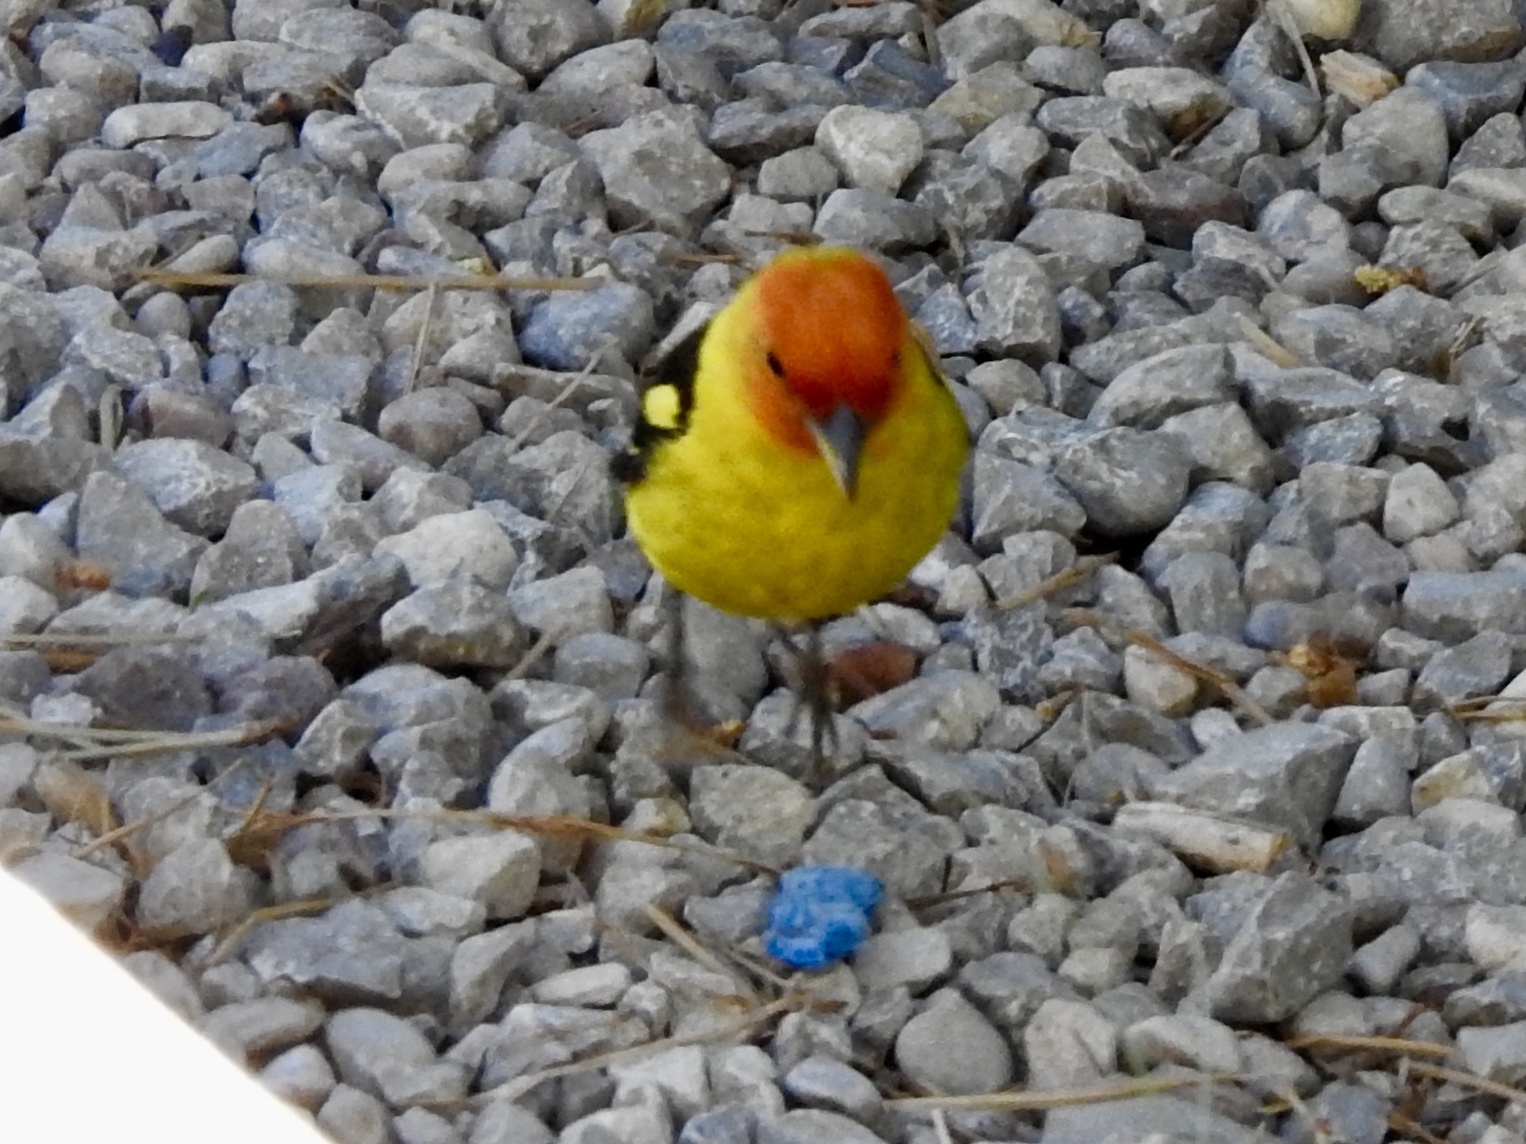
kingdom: Animalia
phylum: Chordata
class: Aves
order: Passeriformes
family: Cardinalidae
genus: Piranga
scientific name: Piranga ludoviciana
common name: Western tanager
